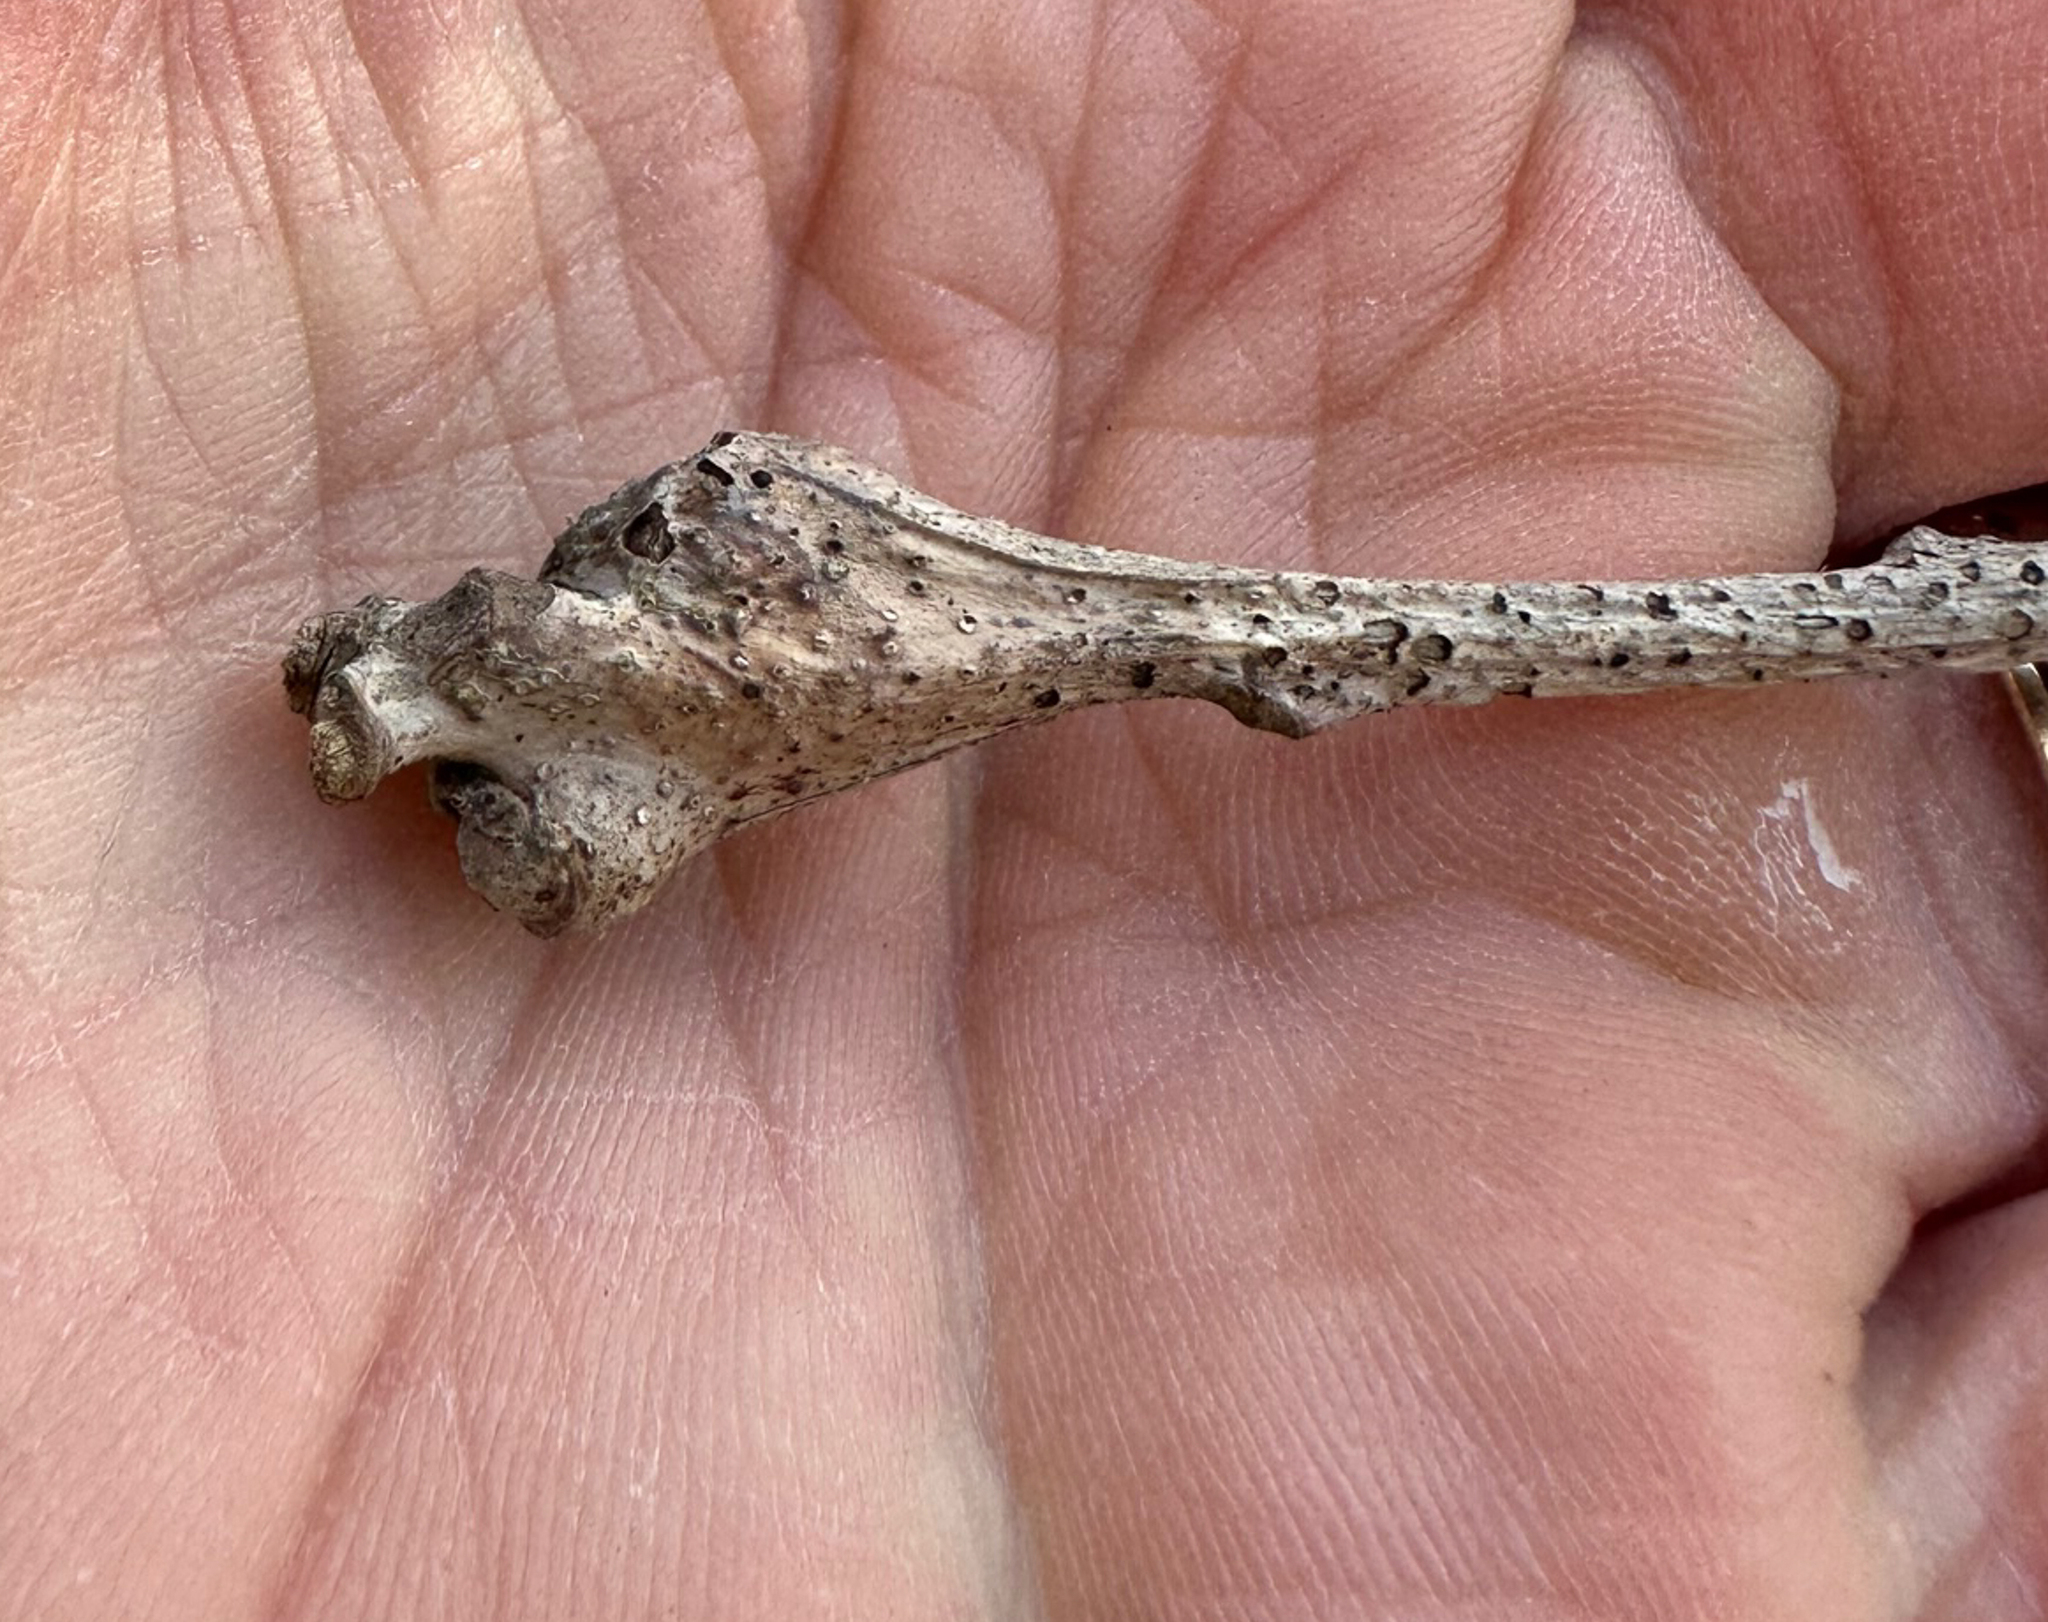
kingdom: Animalia
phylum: Arthropoda
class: Insecta
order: Hymenoptera
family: Cynipidae
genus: Callirhytis
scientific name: Callirhytis clavula
